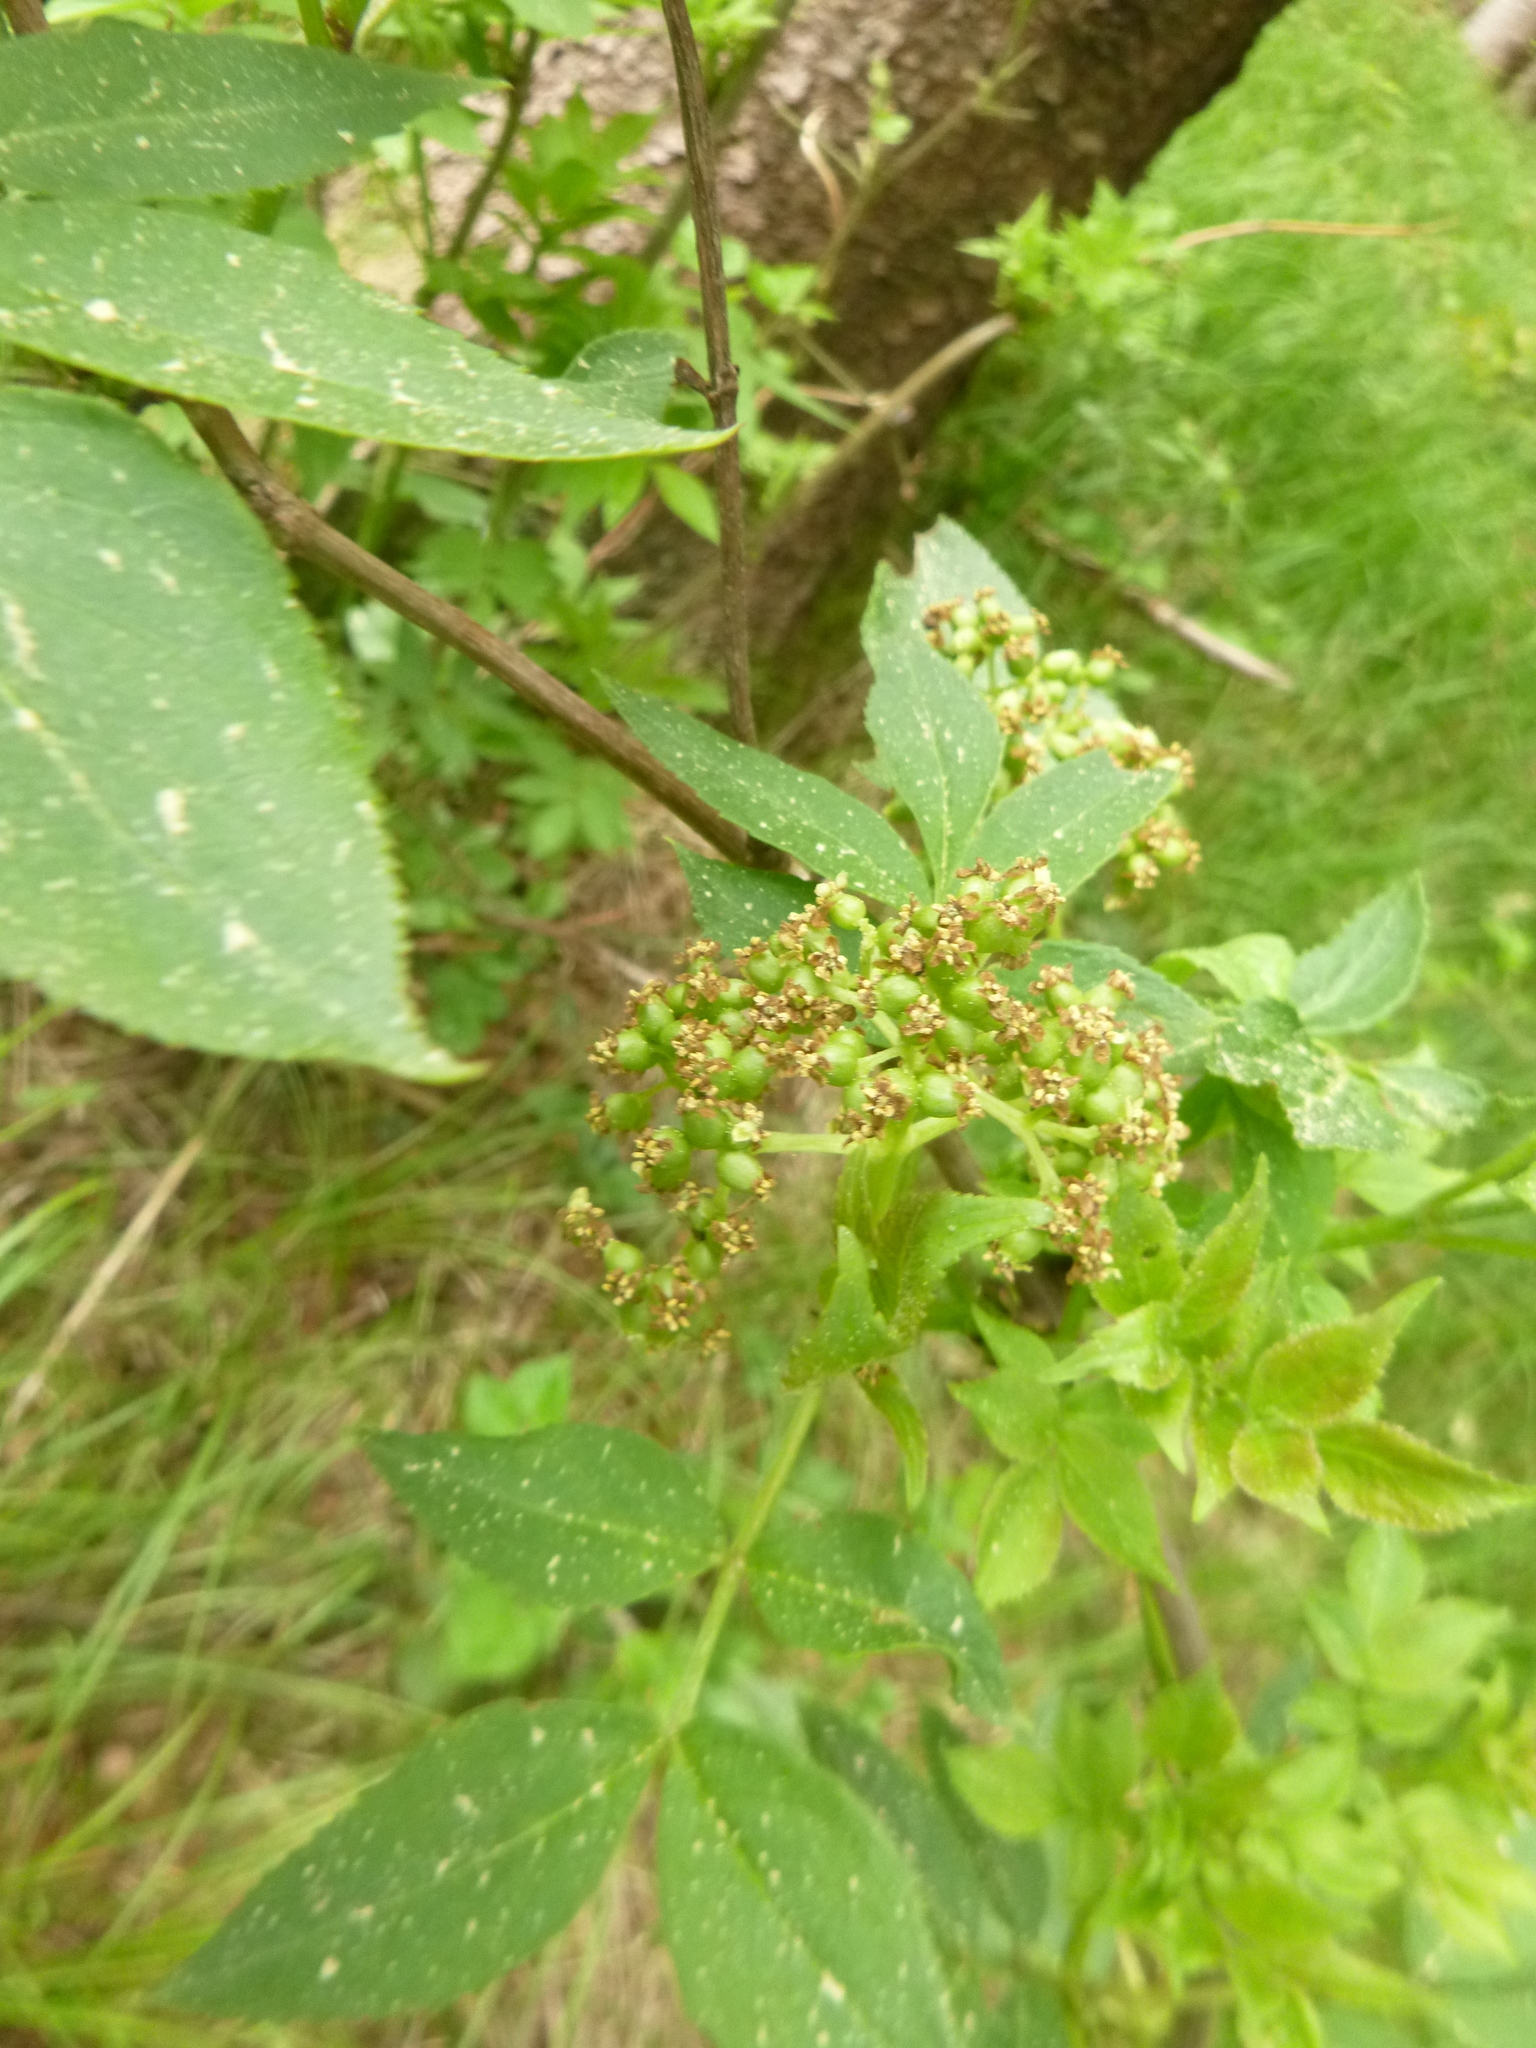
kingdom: Plantae
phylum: Tracheophyta
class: Magnoliopsida
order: Dipsacales
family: Viburnaceae
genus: Sambucus
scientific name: Sambucus racemosa
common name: Red-berried elder
